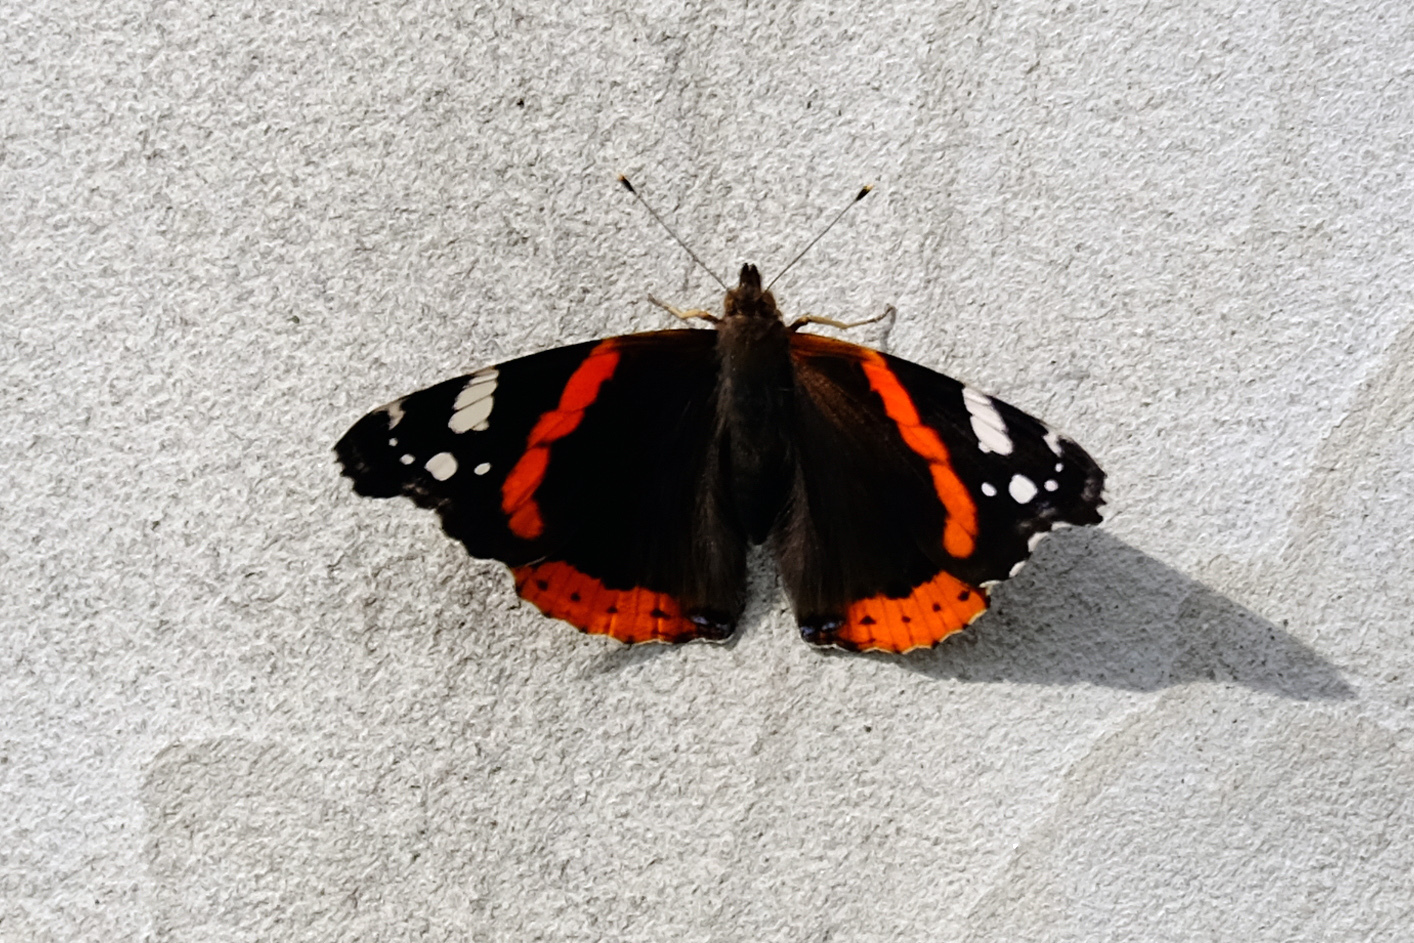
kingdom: Animalia
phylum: Arthropoda
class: Insecta
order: Lepidoptera
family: Nymphalidae
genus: Vanessa
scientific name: Vanessa atalanta
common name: Red admiral
